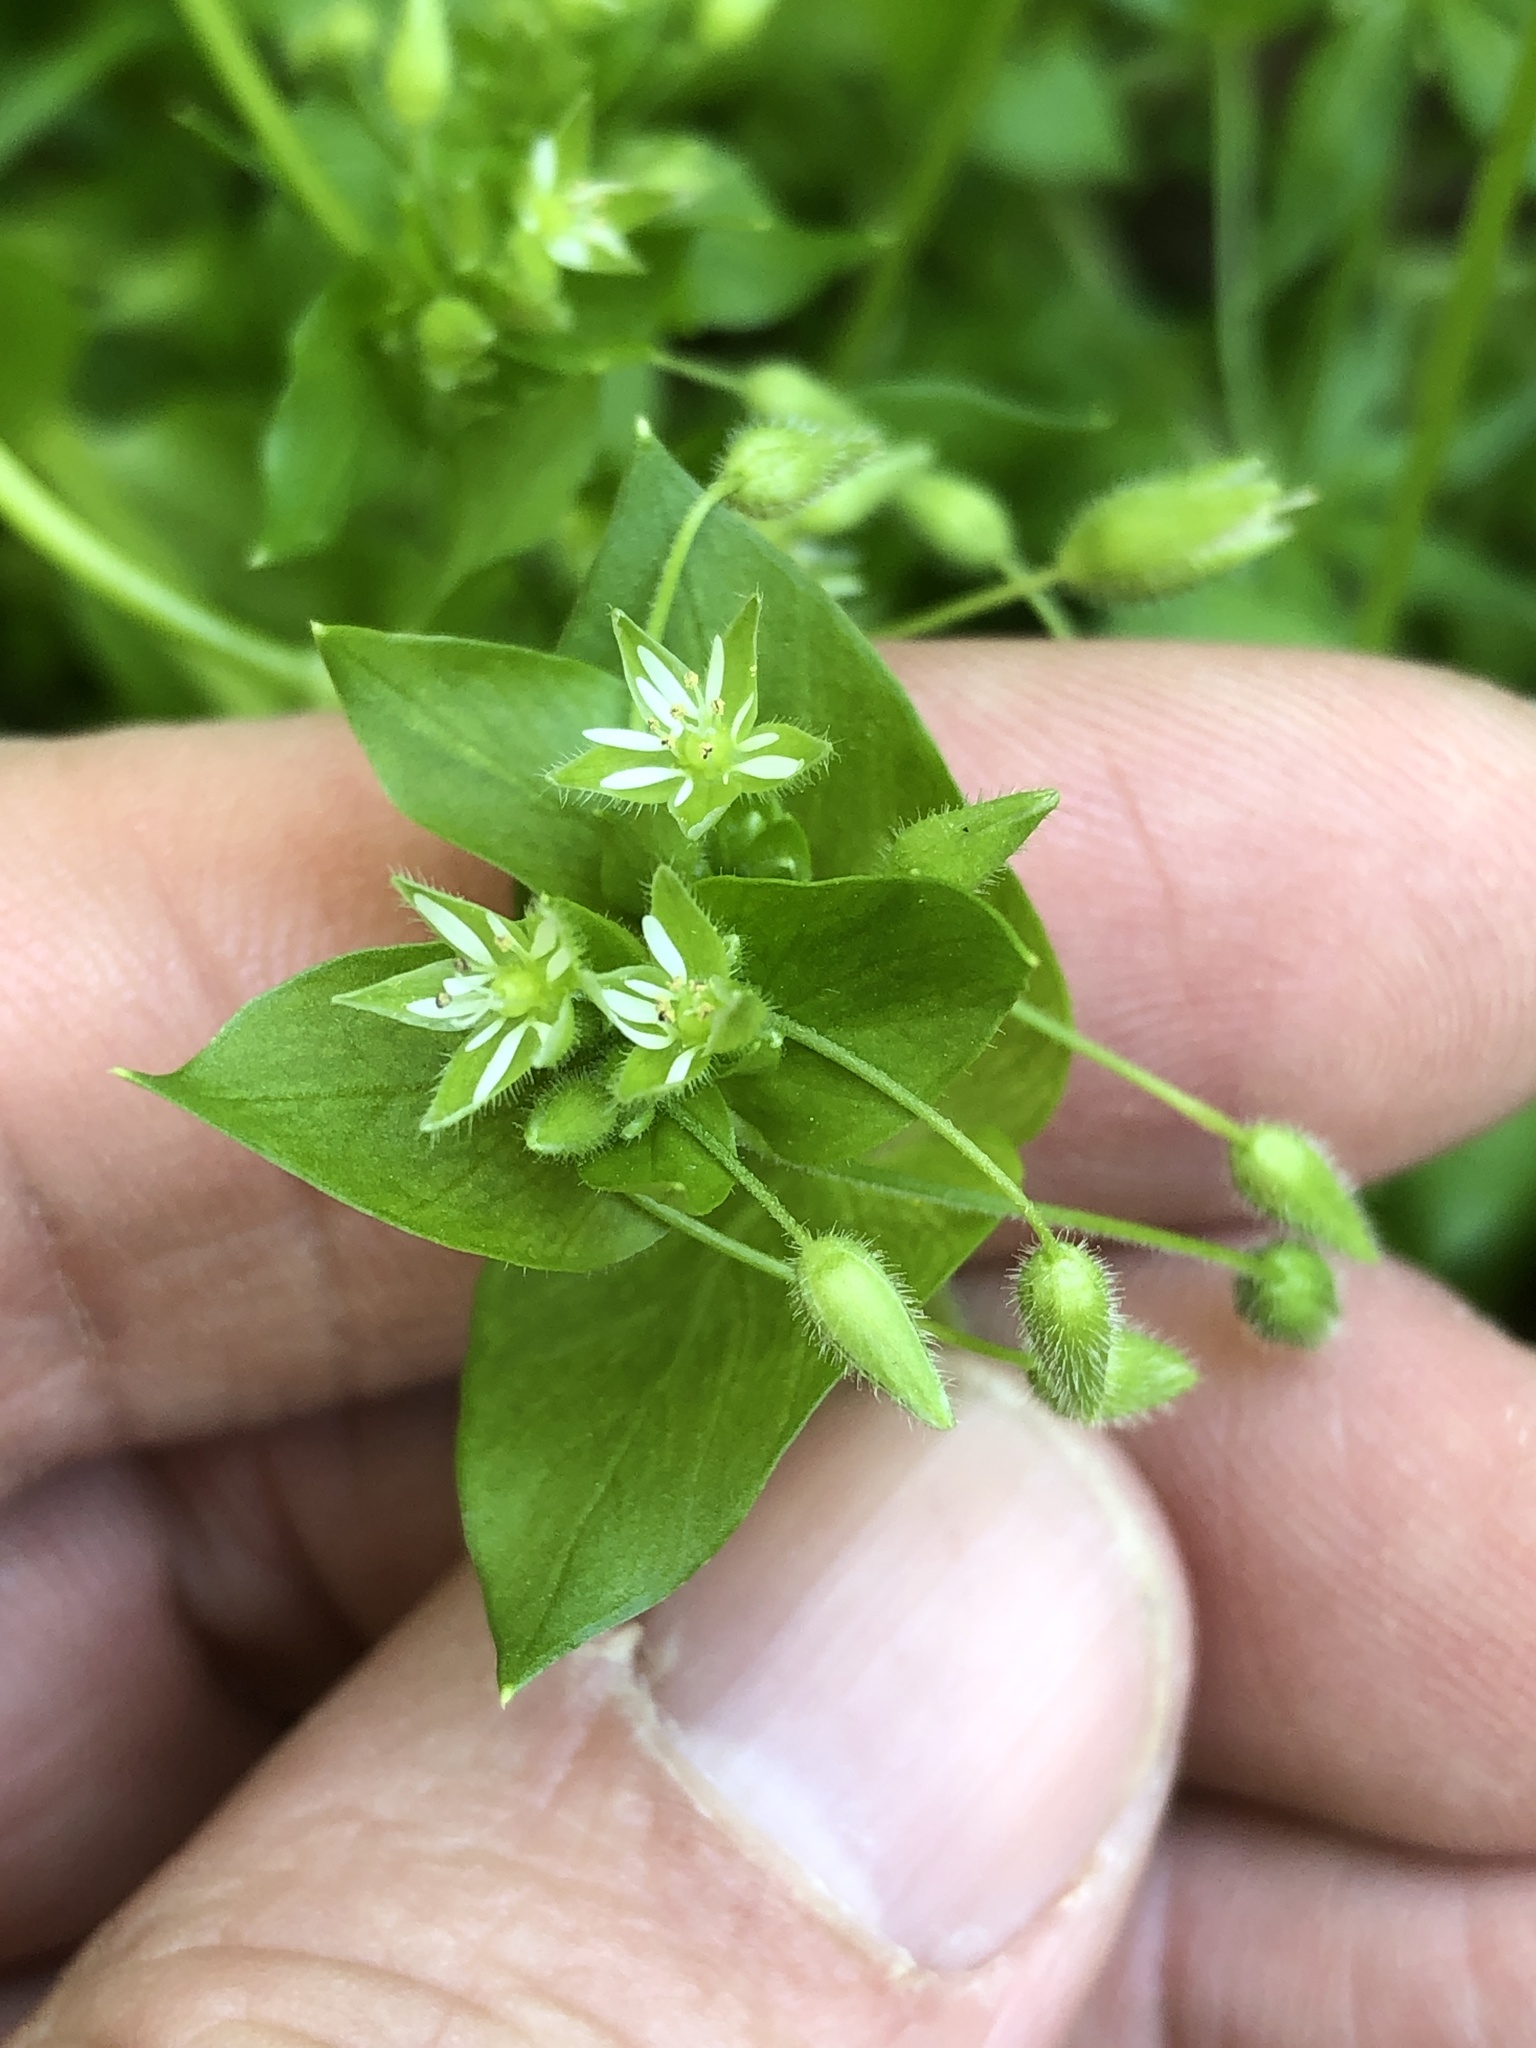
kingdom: Plantae
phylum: Tracheophyta
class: Magnoliopsida
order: Caryophyllales
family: Caryophyllaceae
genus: Stellaria
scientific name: Stellaria media
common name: Common chickweed
